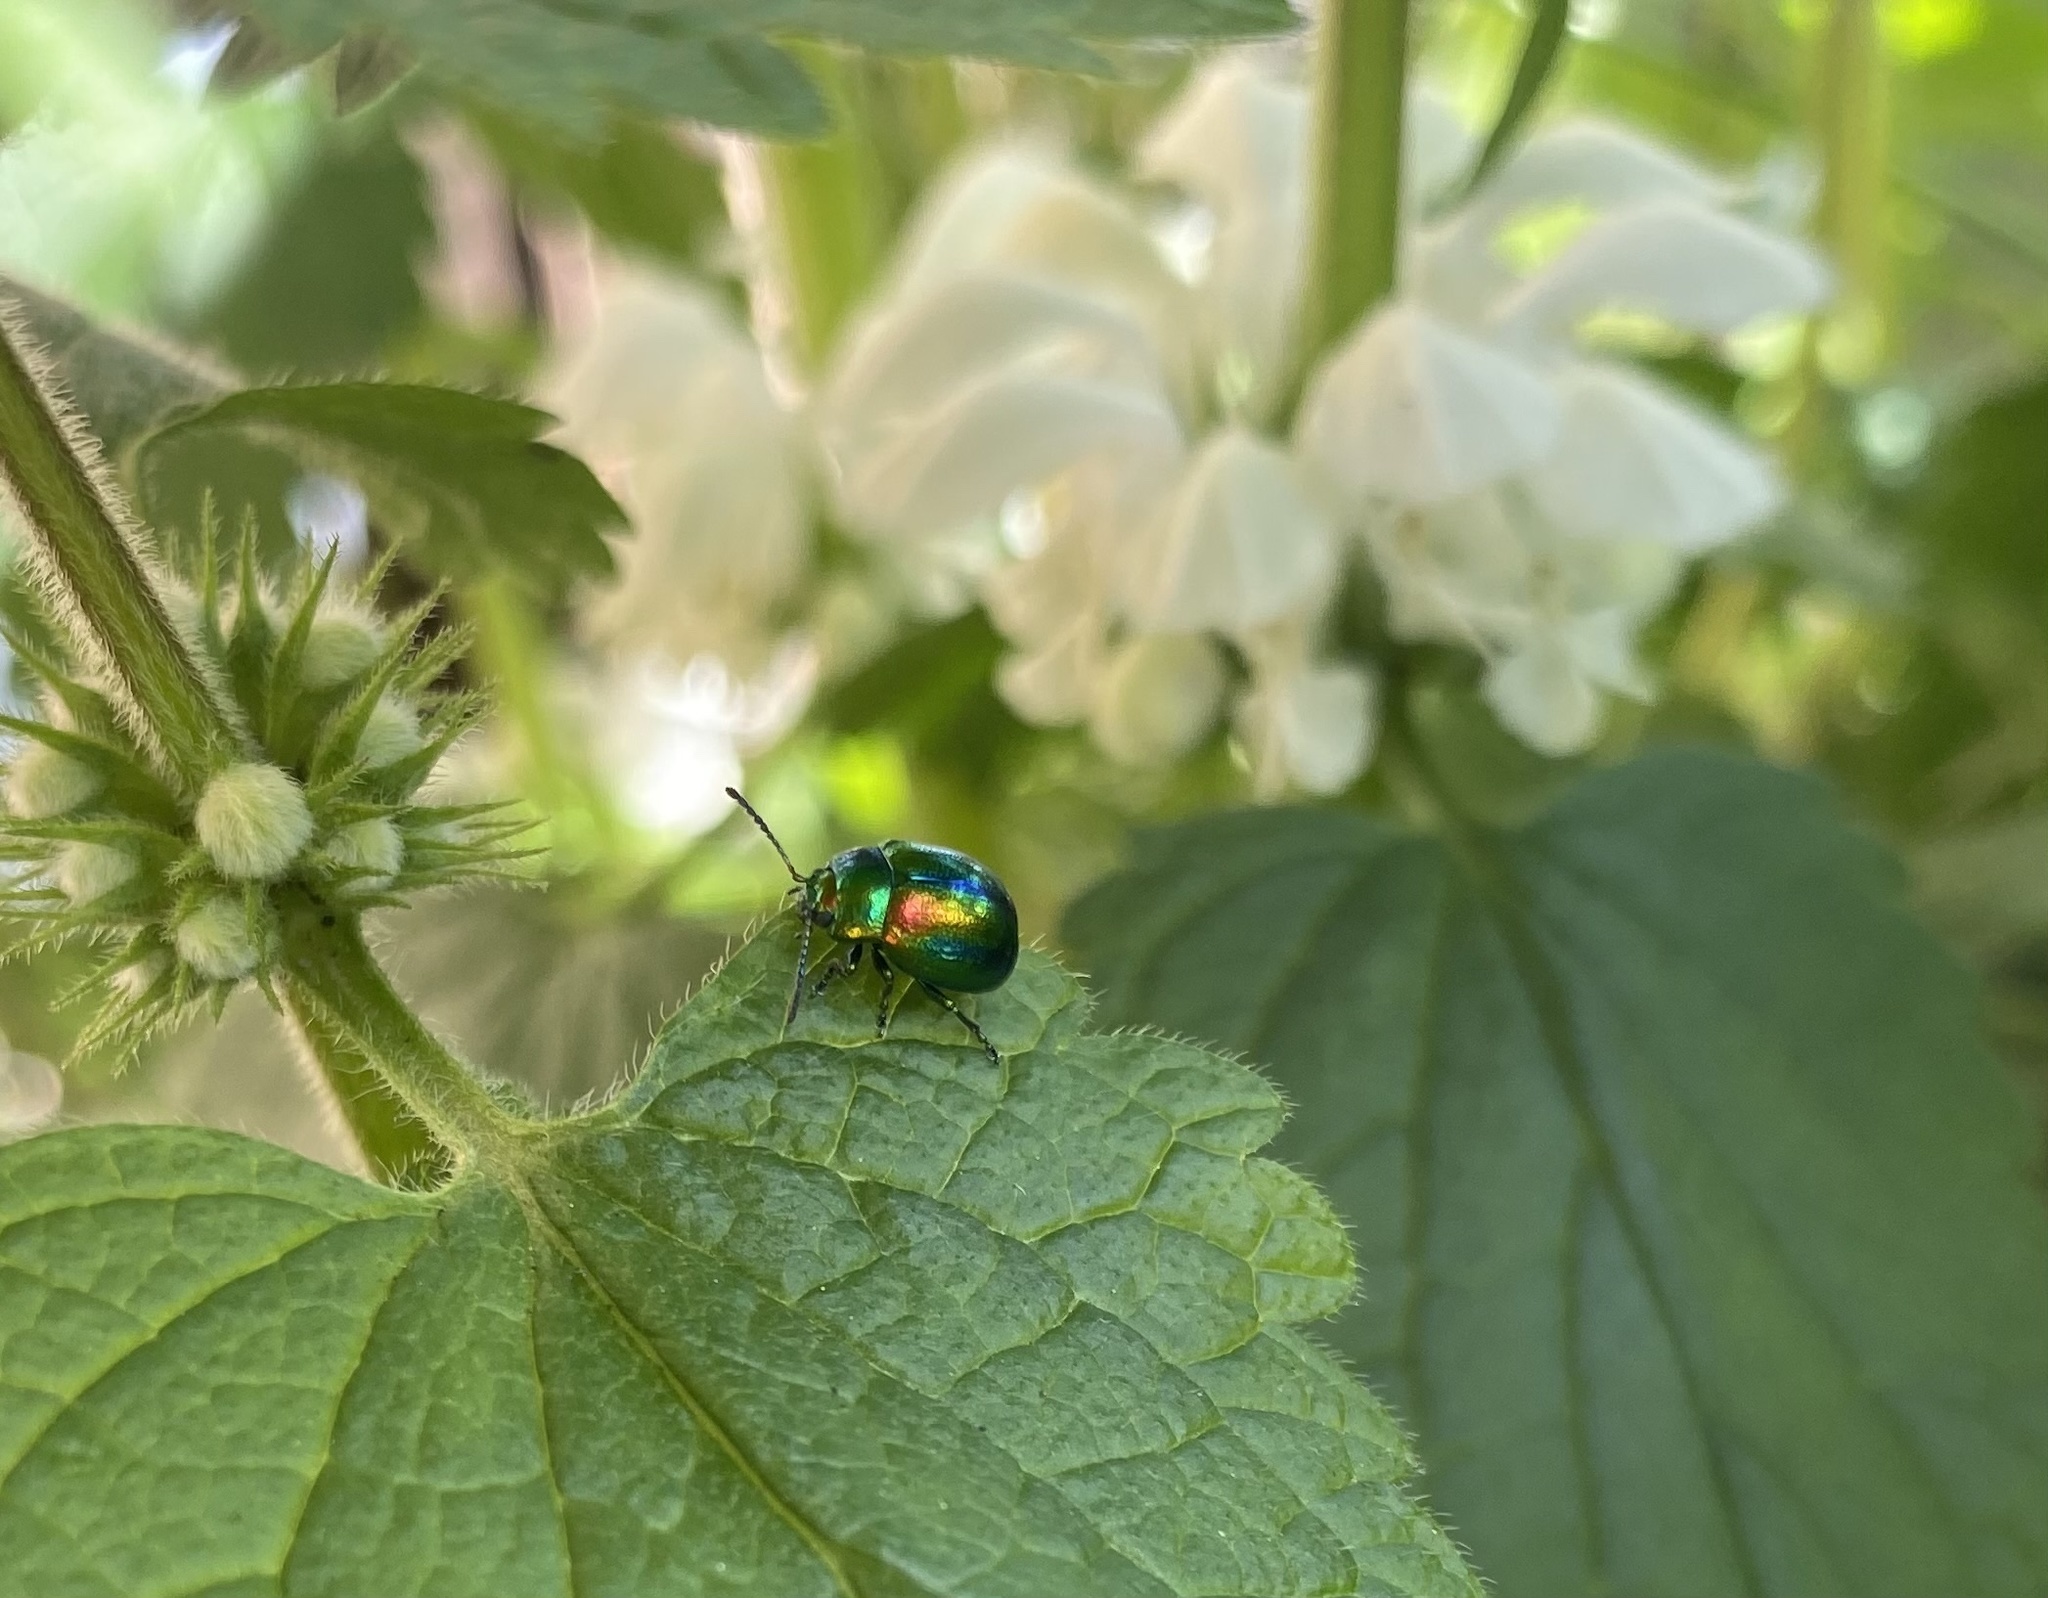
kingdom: Animalia
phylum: Arthropoda
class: Insecta
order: Coleoptera
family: Chrysomelidae
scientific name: Chrysomelidae
